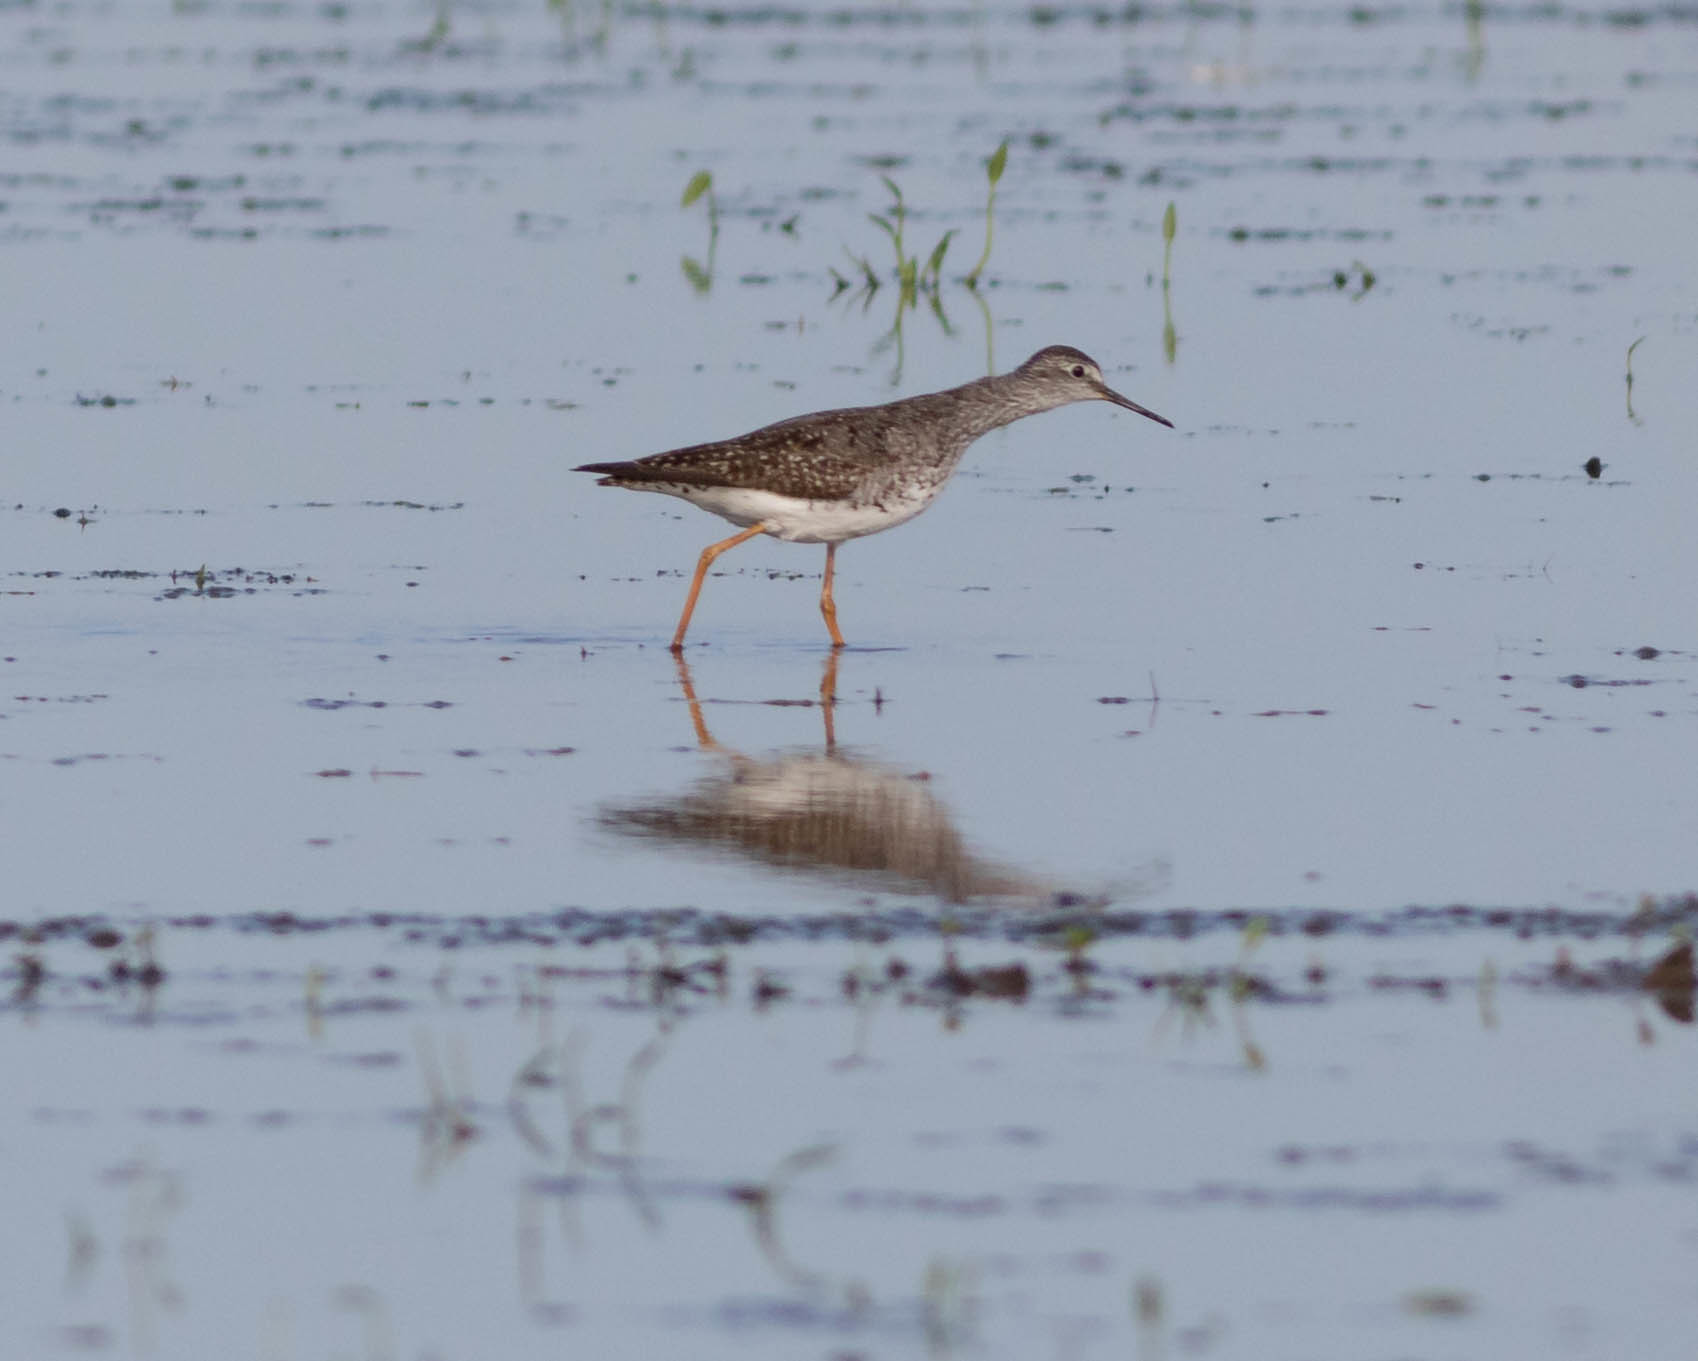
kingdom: Animalia
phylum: Chordata
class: Aves
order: Charadriiformes
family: Scolopacidae
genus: Tringa
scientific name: Tringa flavipes
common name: Lesser yellowlegs
